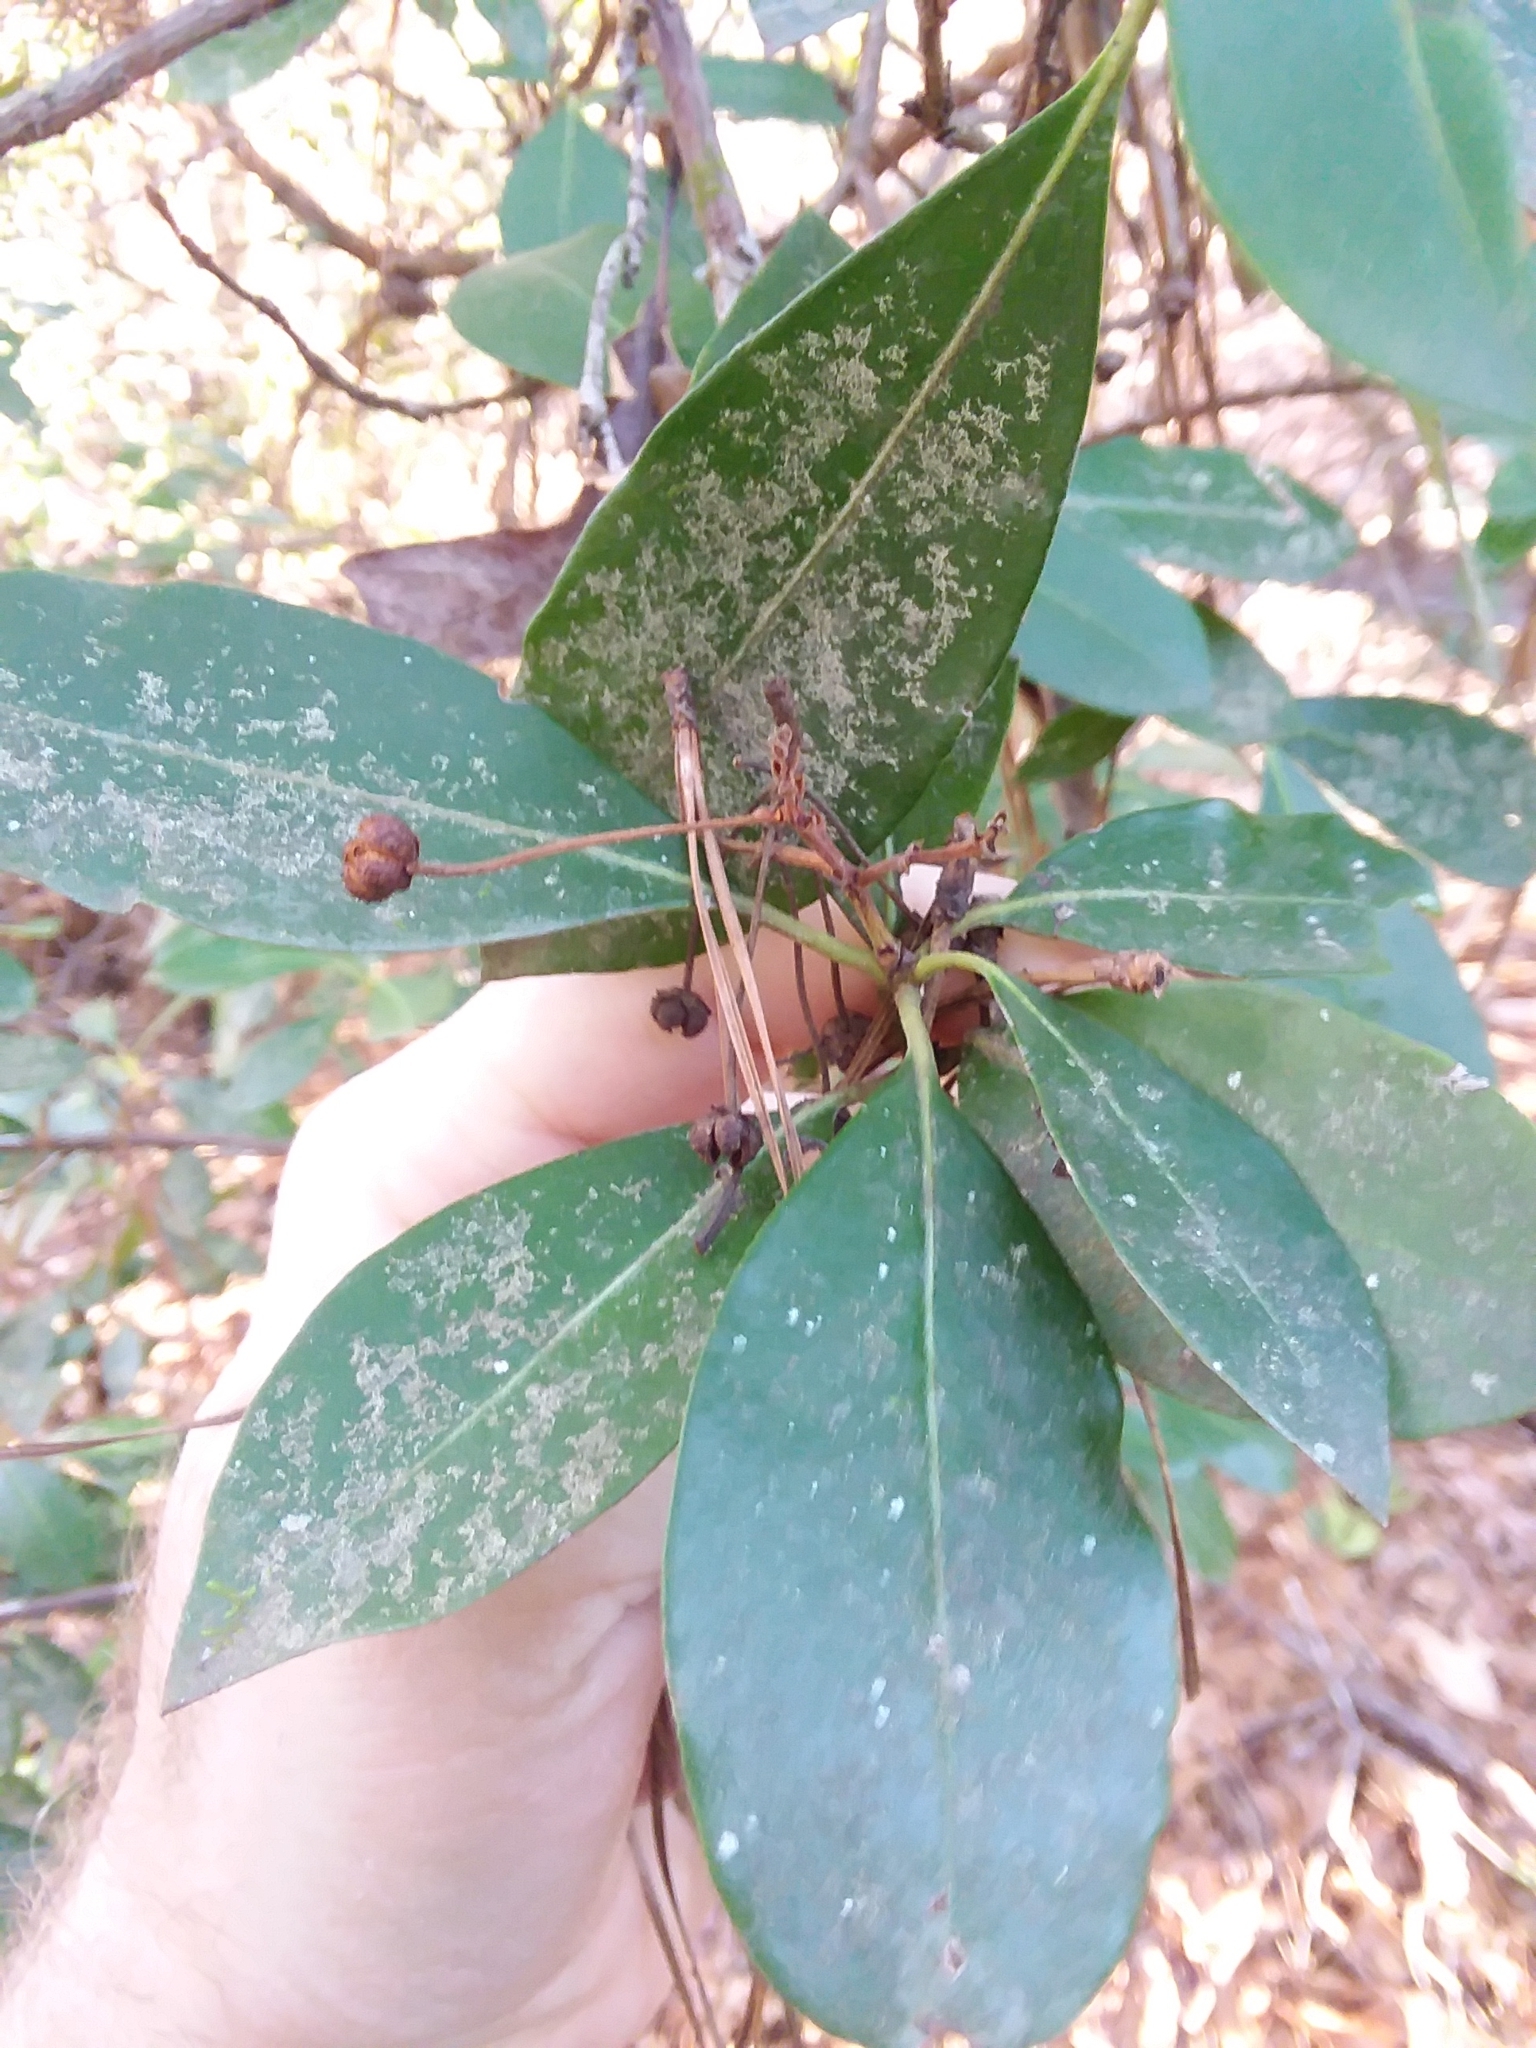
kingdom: Plantae
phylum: Tracheophyta
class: Magnoliopsida
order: Ericales
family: Ericaceae
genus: Kalmia
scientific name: Kalmia latifolia
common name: Mountain-laurel
